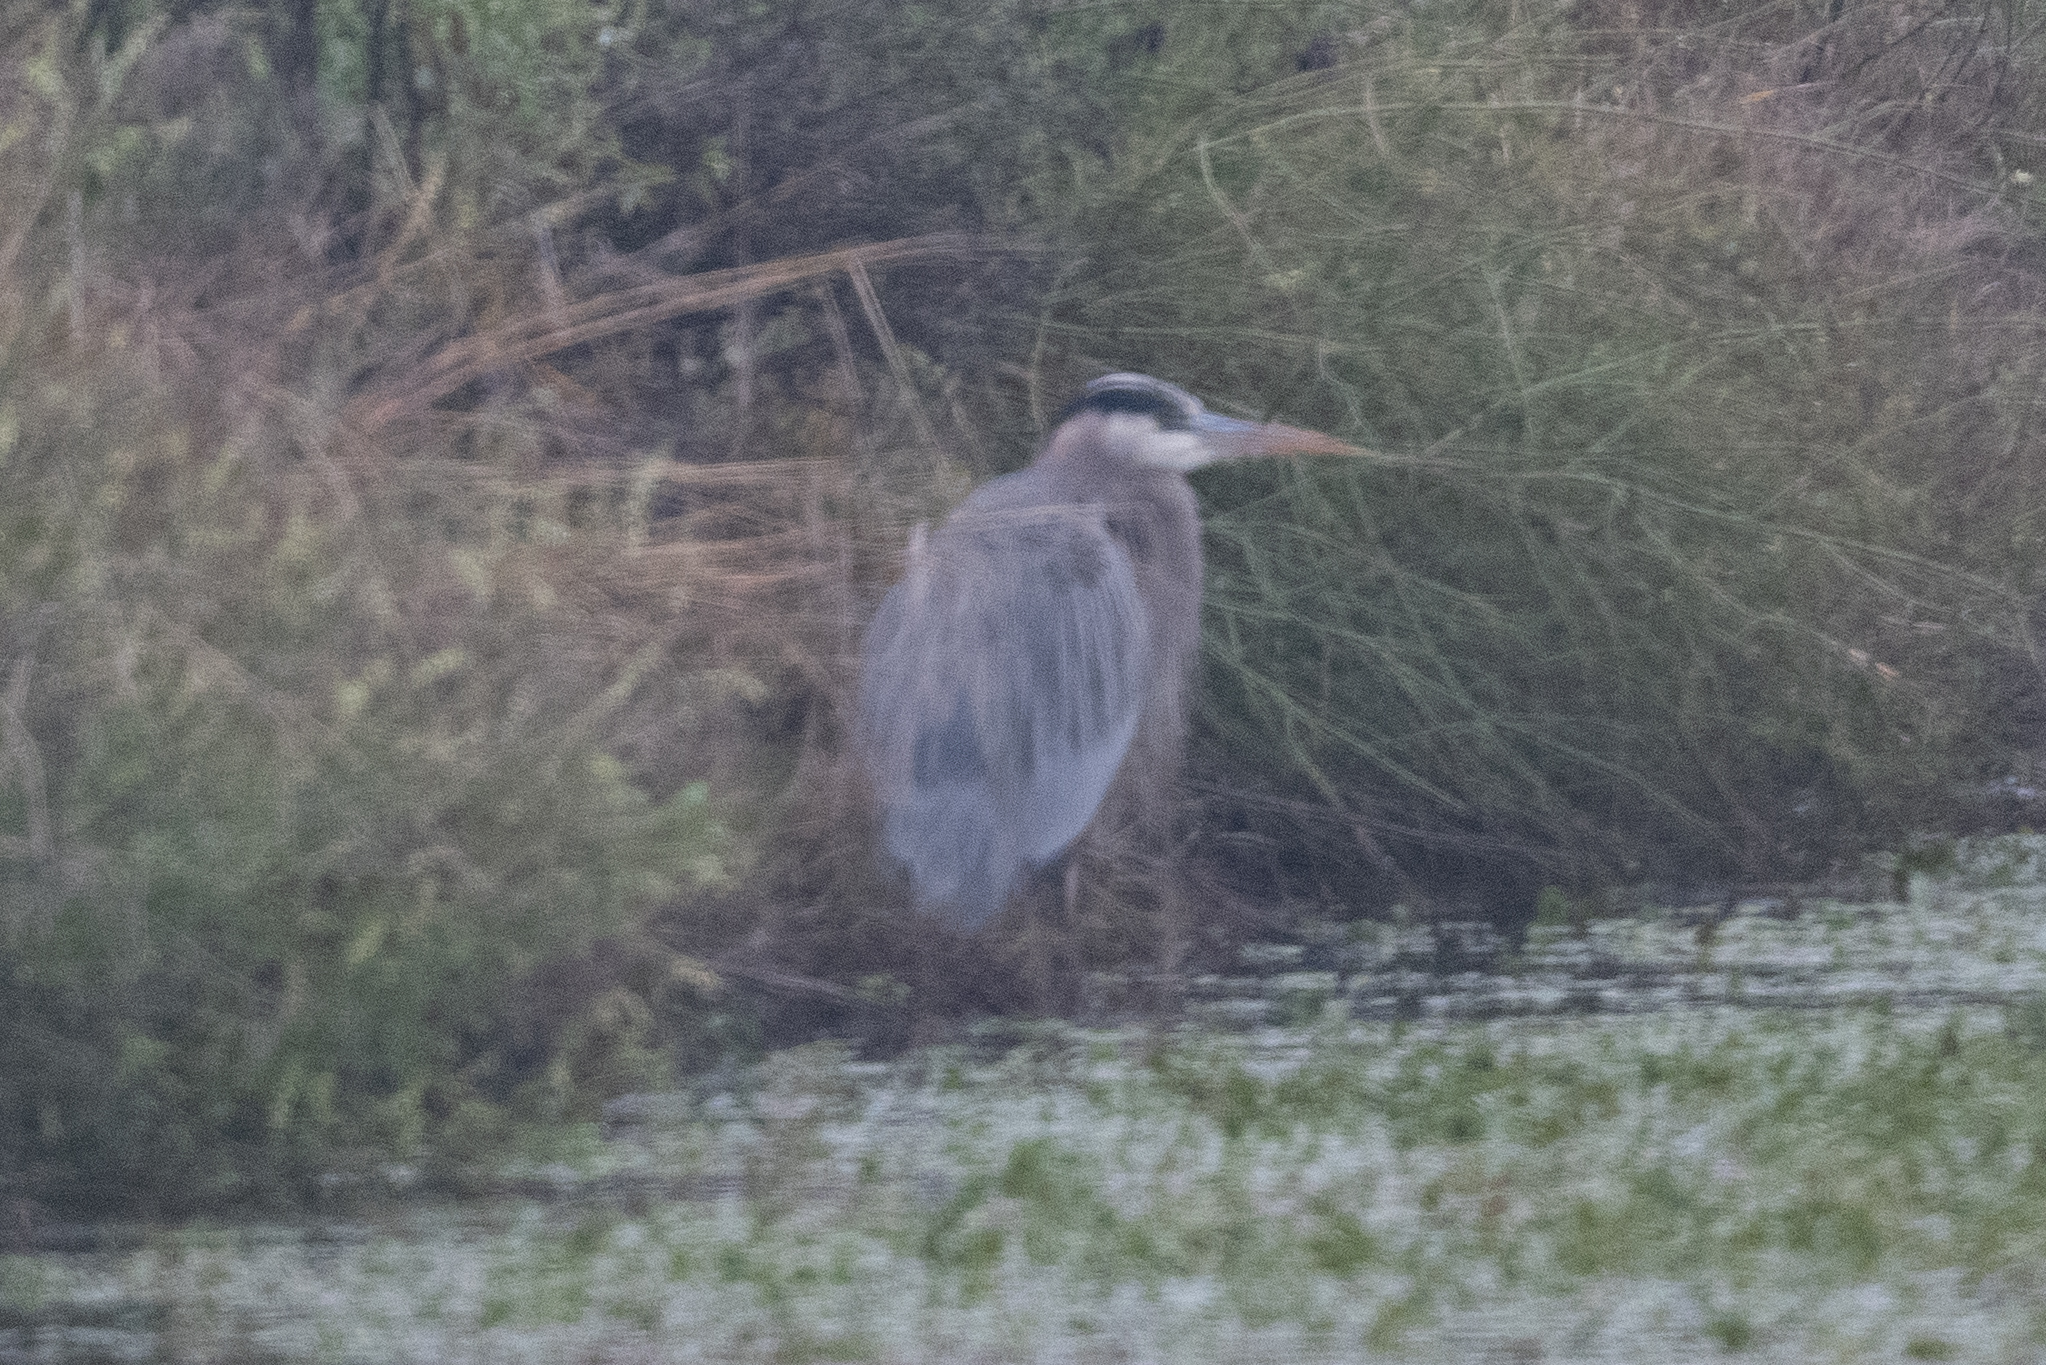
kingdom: Animalia
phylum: Chordata
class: Aves
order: Pelecaniformes
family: Ardeidae
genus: Ardea
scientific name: Ardea herodias
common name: Great blue heron
